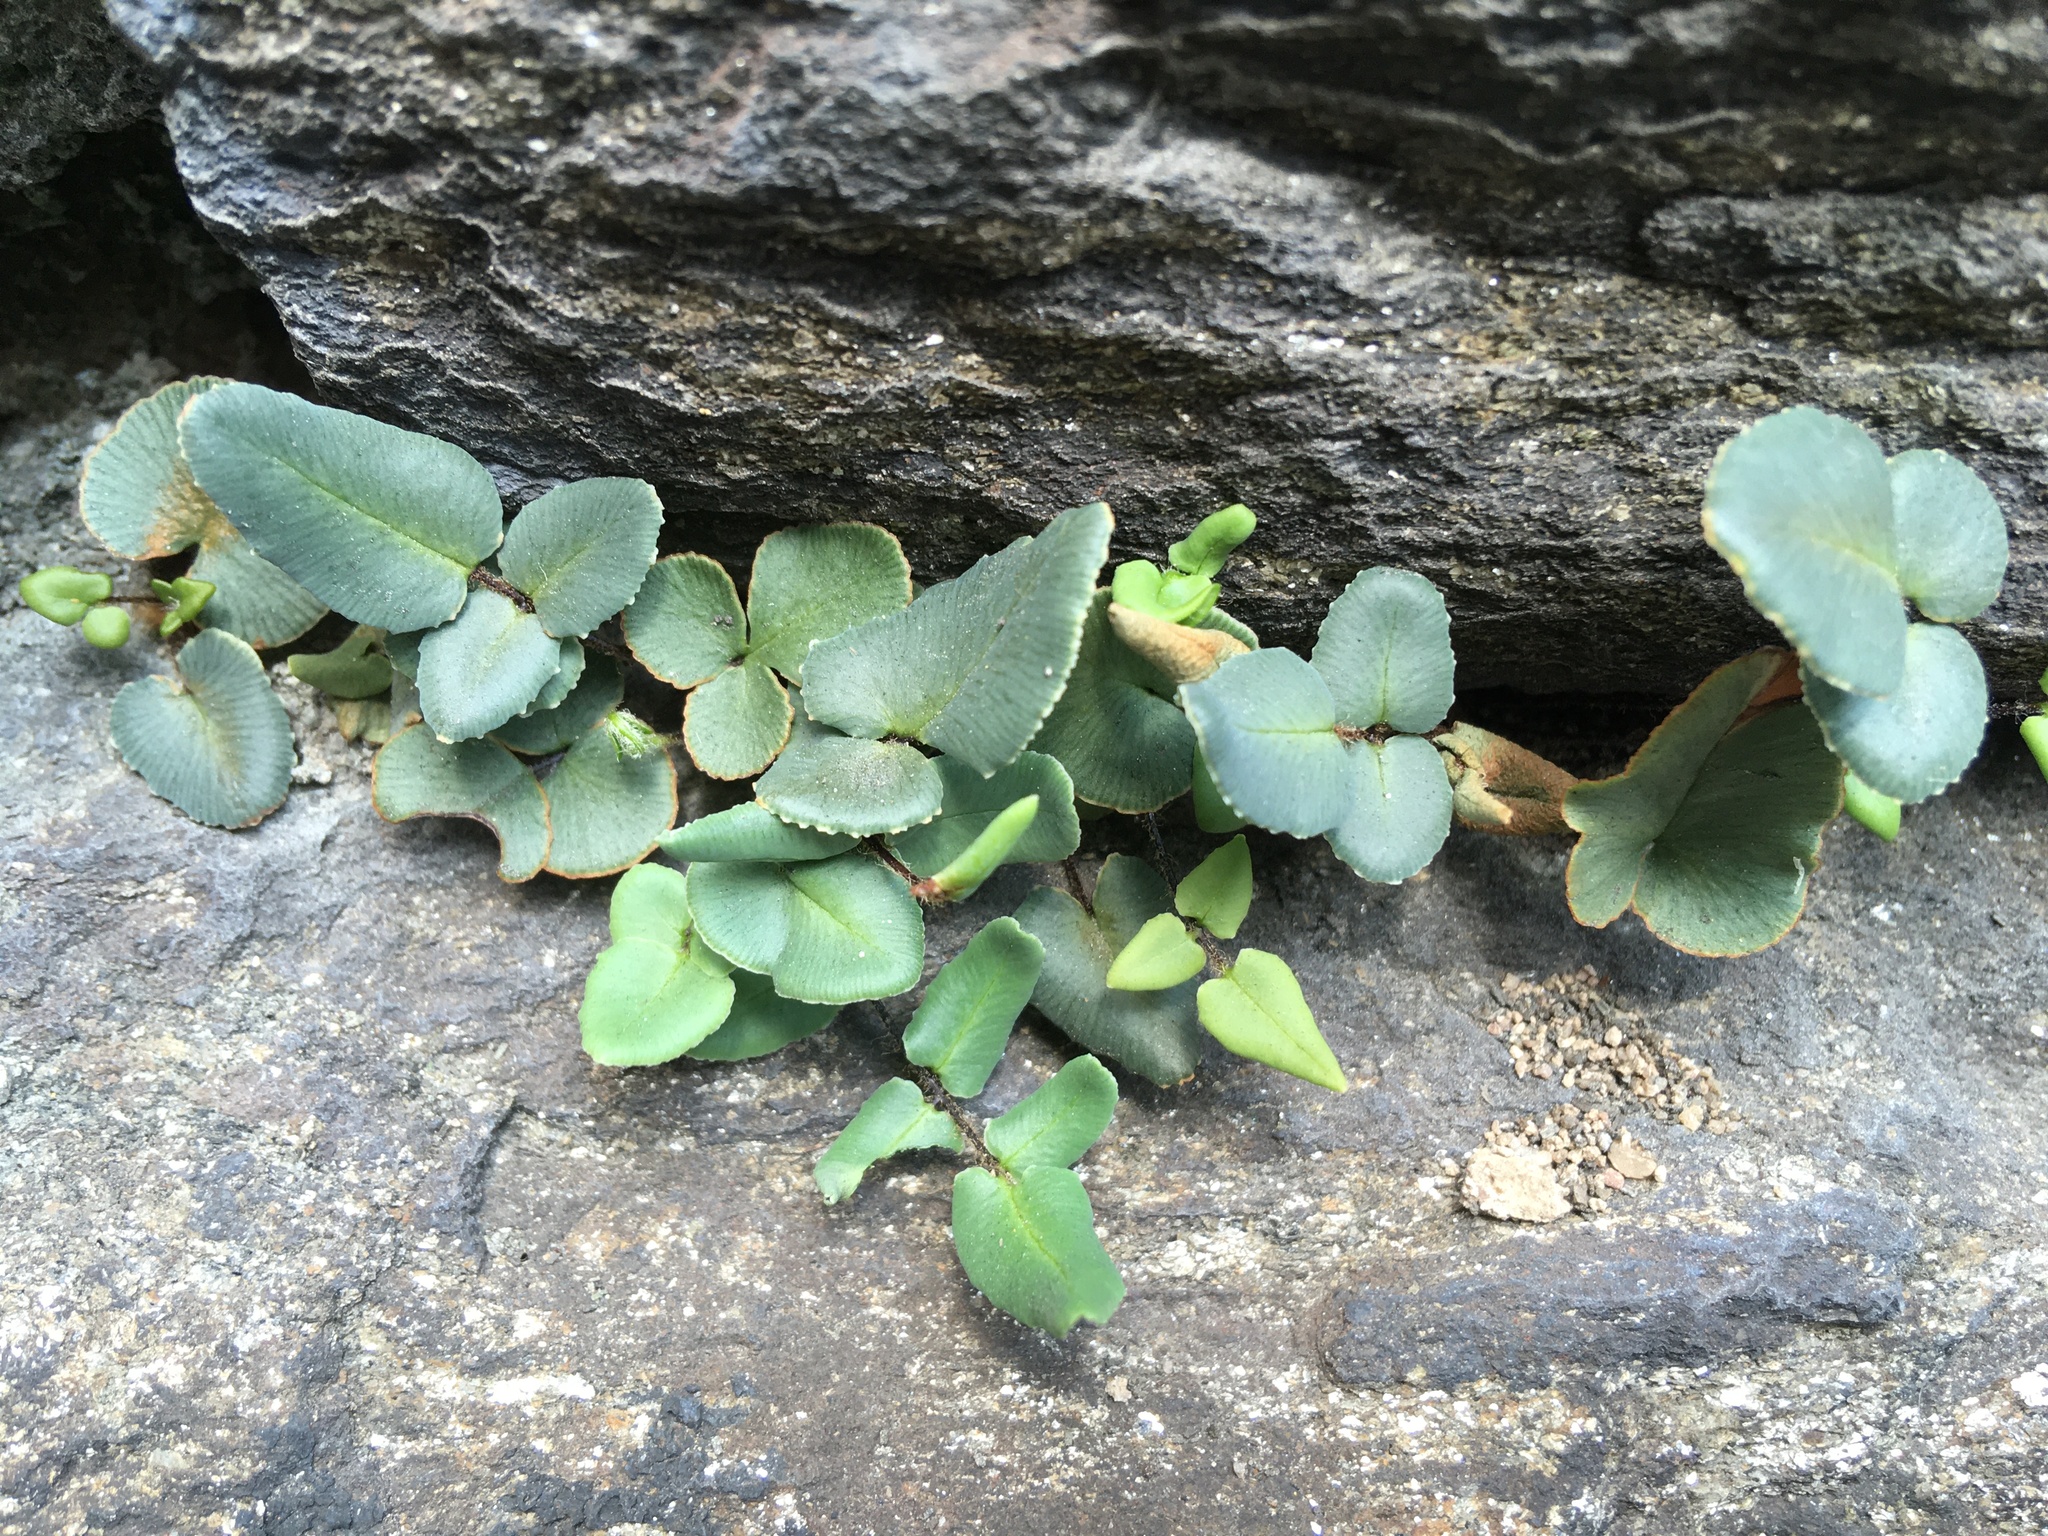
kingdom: Plantae
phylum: Tracheophyta
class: Polypodiopsida
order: Polypodiales
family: Pteridaceae
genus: Pellaea
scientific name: Pellaea atropurpurea
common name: Hairy cliffbrake
